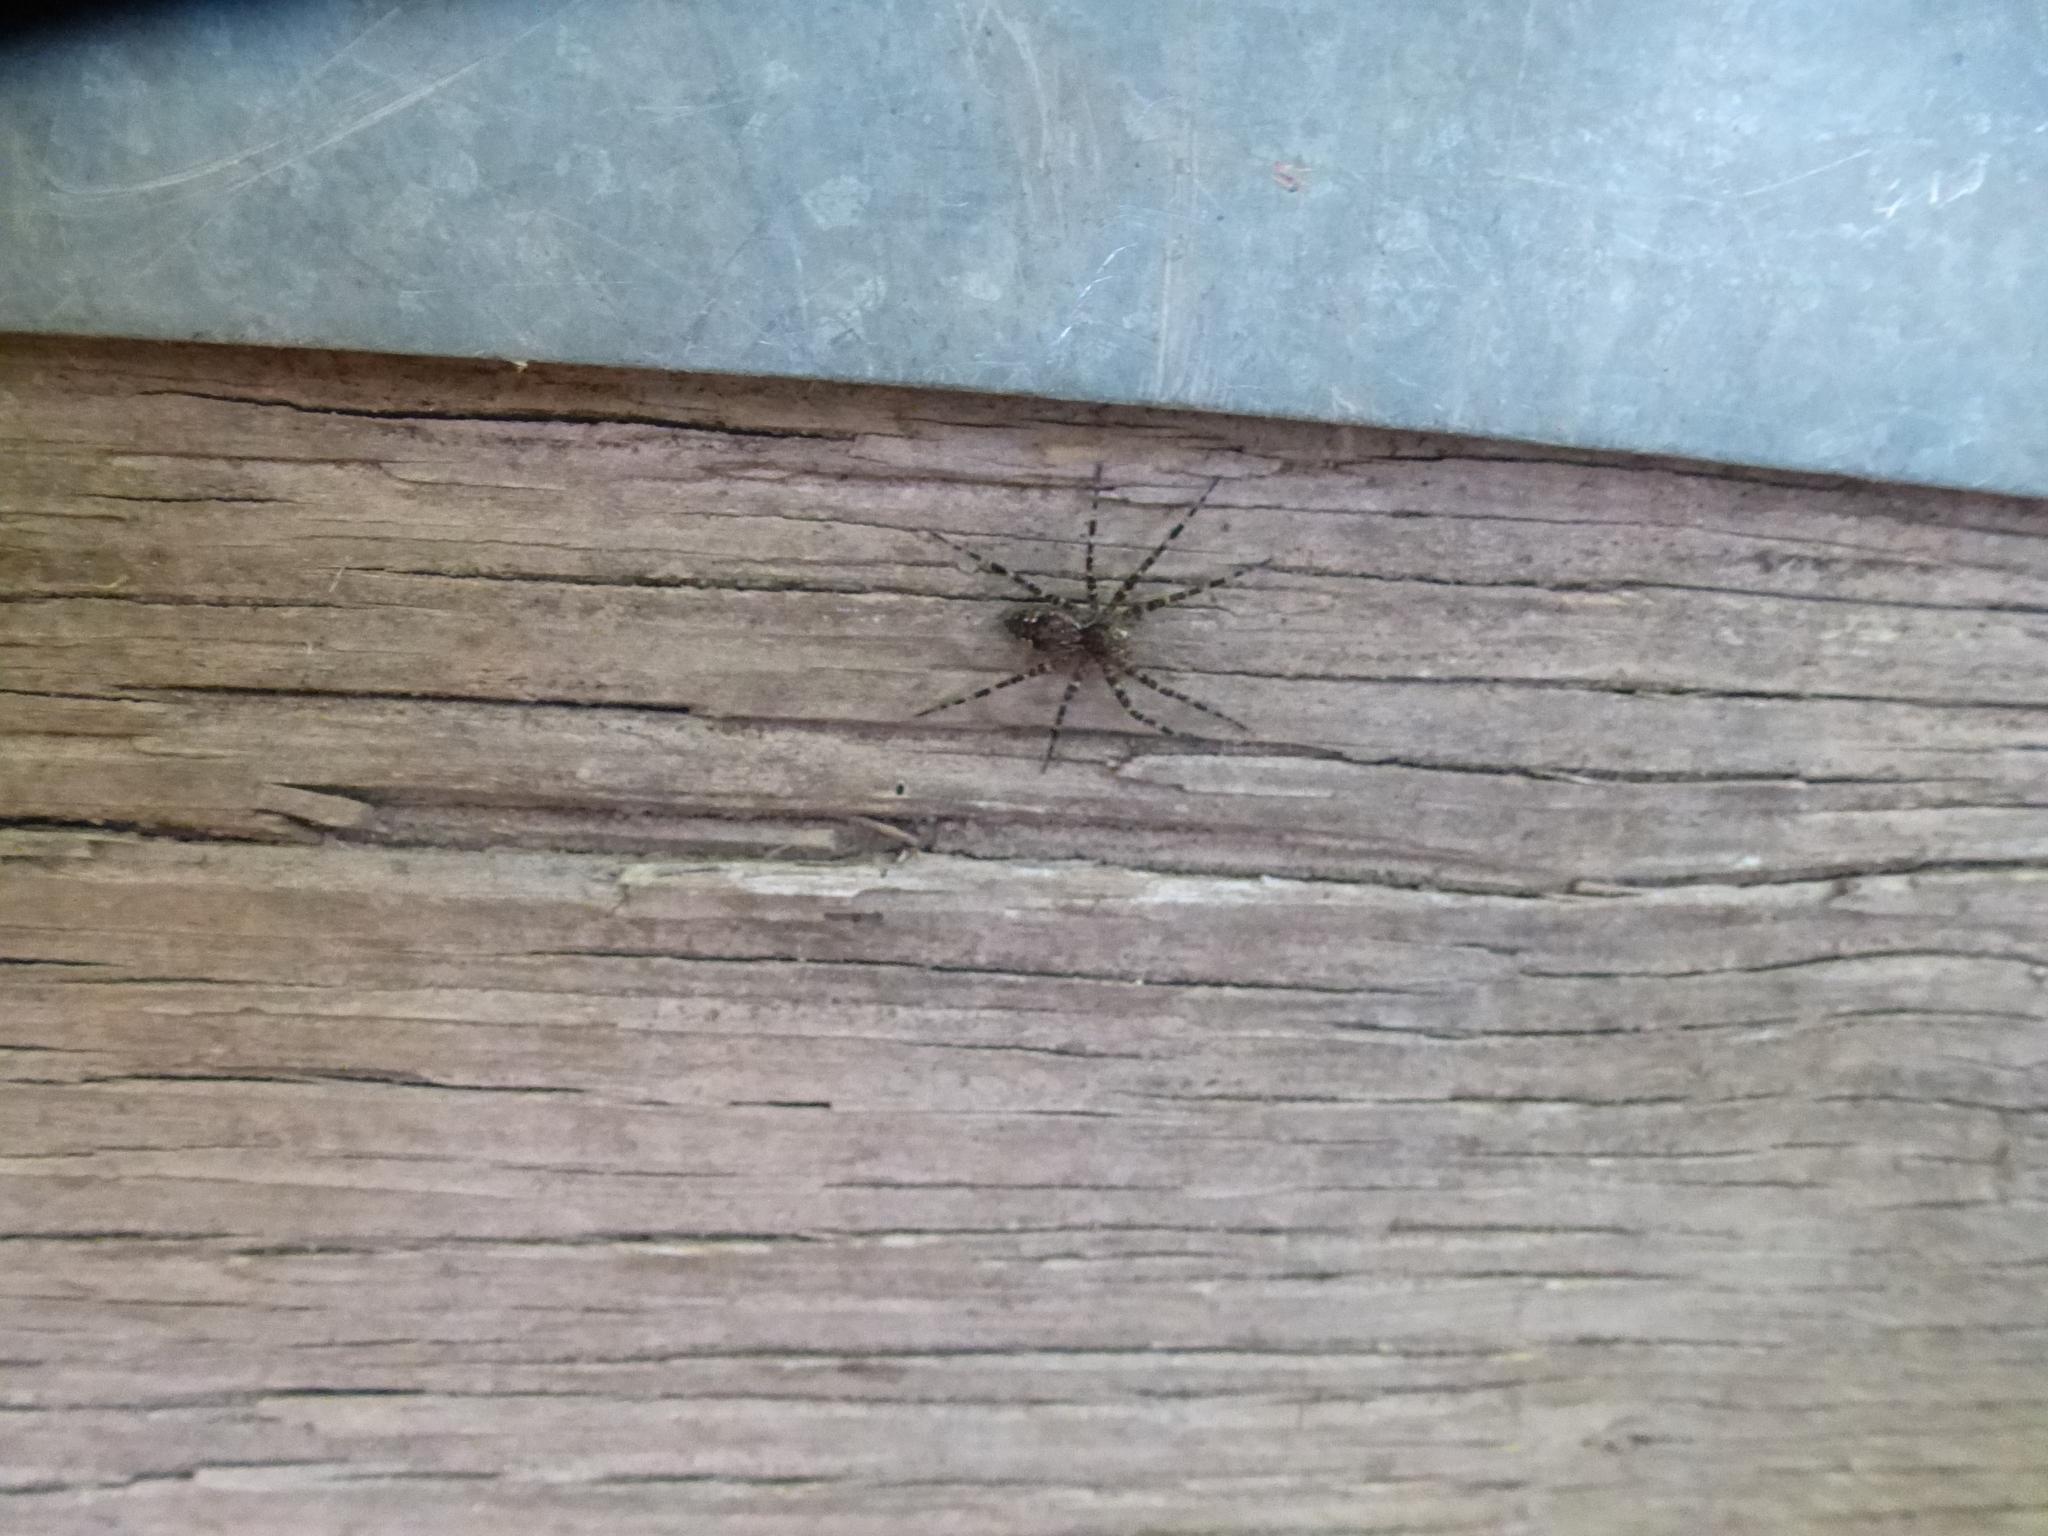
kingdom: Animalia
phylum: Arthropoda
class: Arachnida
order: Araneae
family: Pisauridae
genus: Dolomedes
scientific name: Dolomedes tenebrosus
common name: Dark fishing spider
